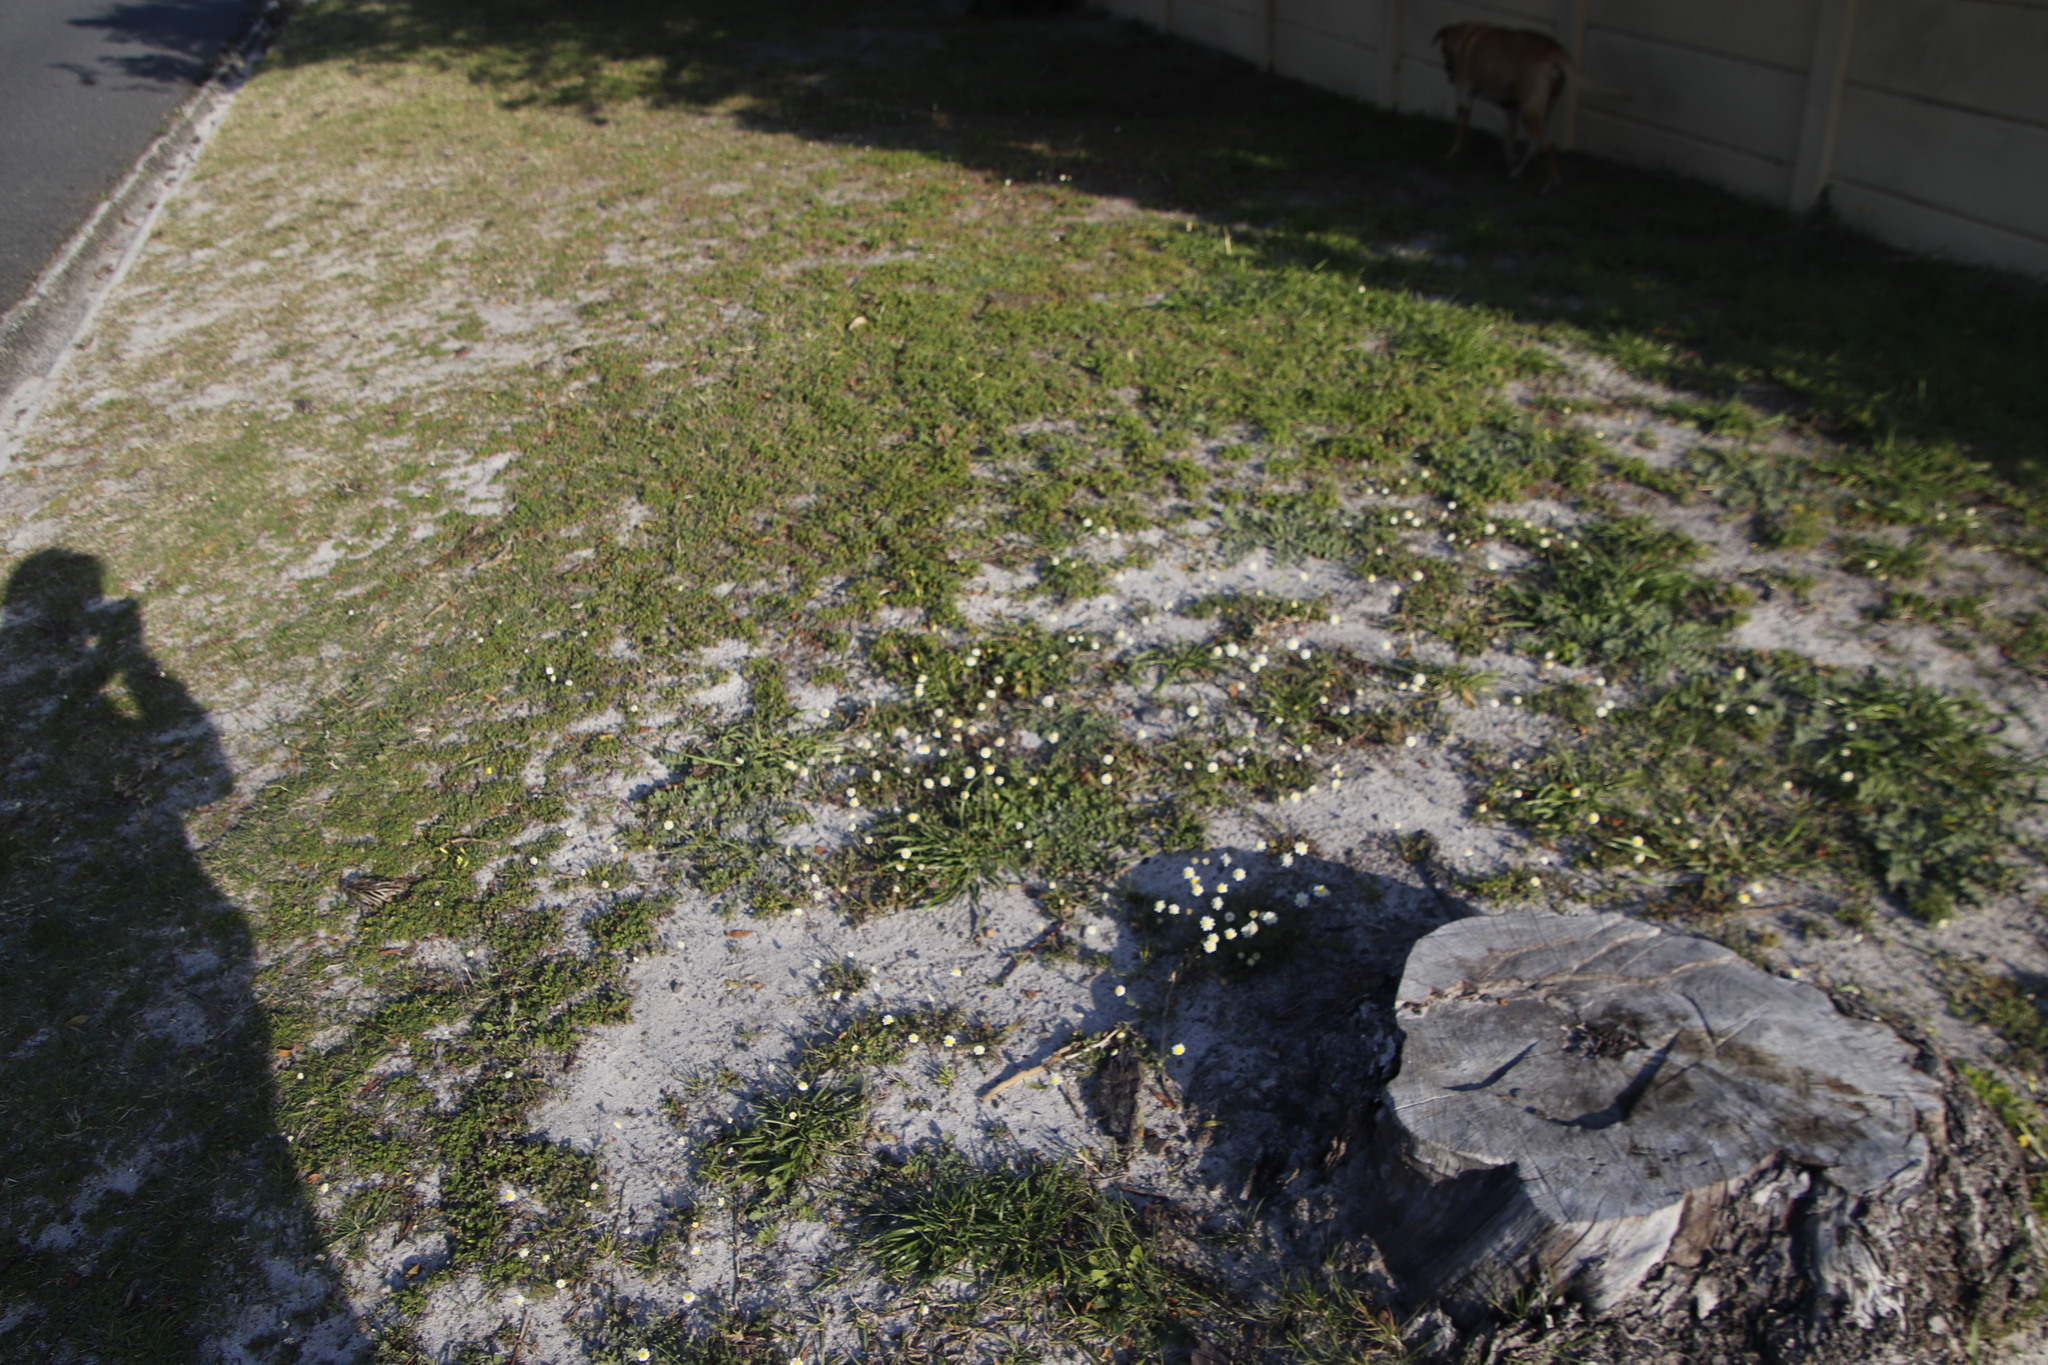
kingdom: Plantae
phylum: Tracheophyta
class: Magnoliopsida
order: Asterales
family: Asteraceae
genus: Cotula
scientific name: Cotula turbinata
